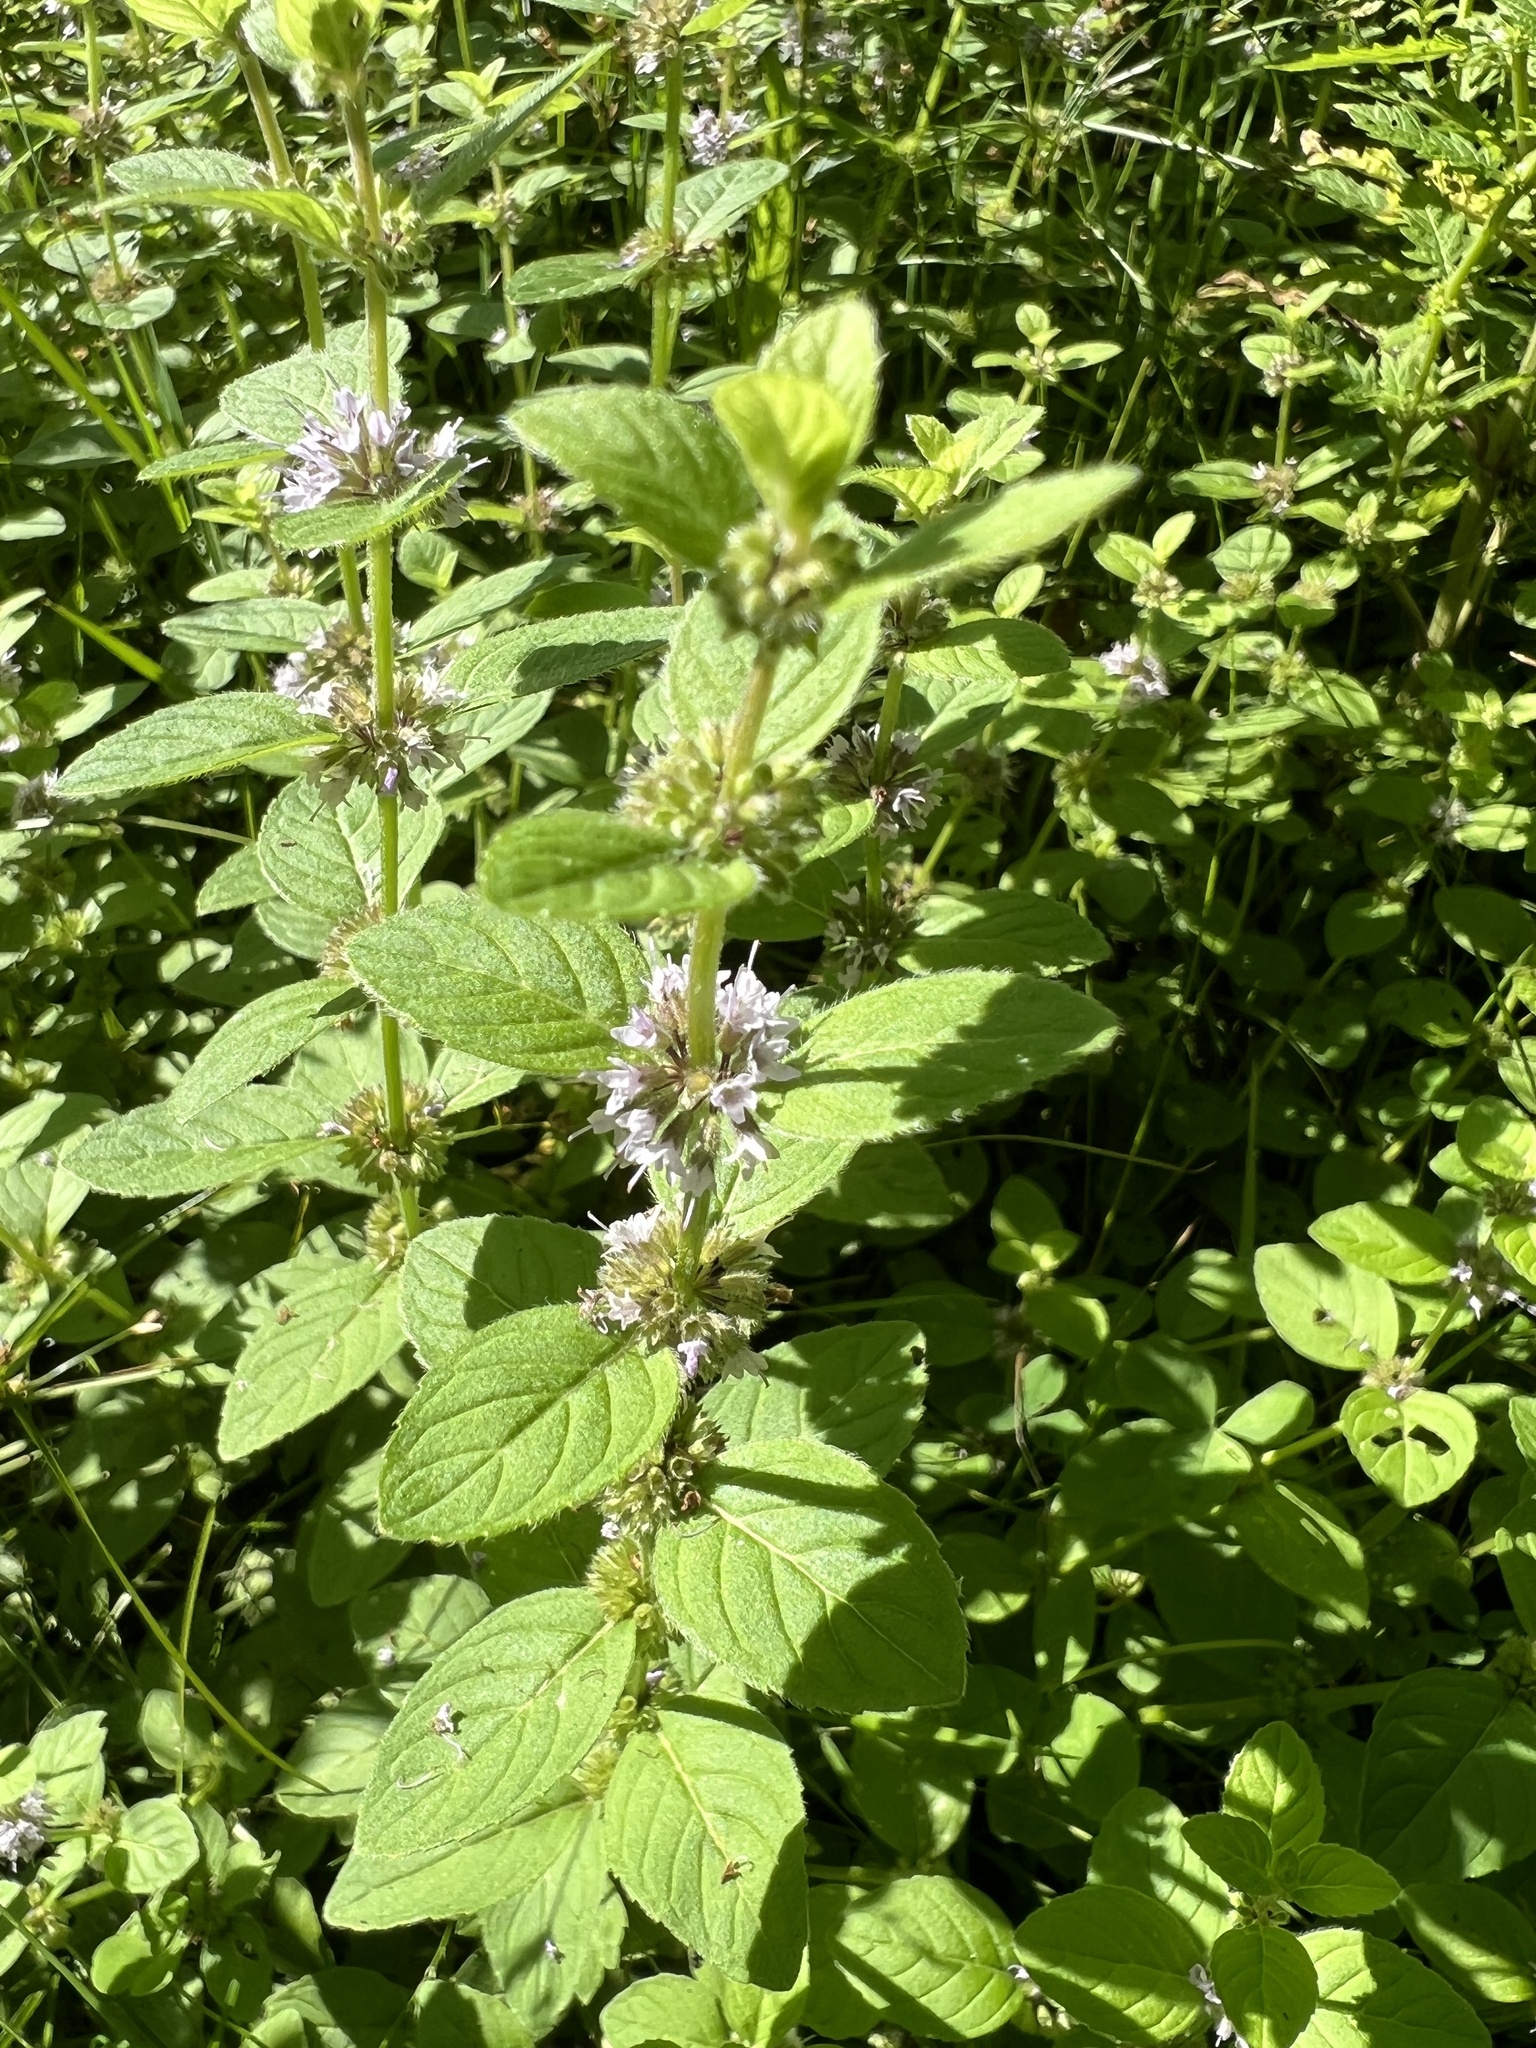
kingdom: Plantae
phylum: Tracheophyta
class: Magnoliopsida
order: Lamiales
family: Lamiaceae
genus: Mentha
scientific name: Mentha arvensis
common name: Corn mint
